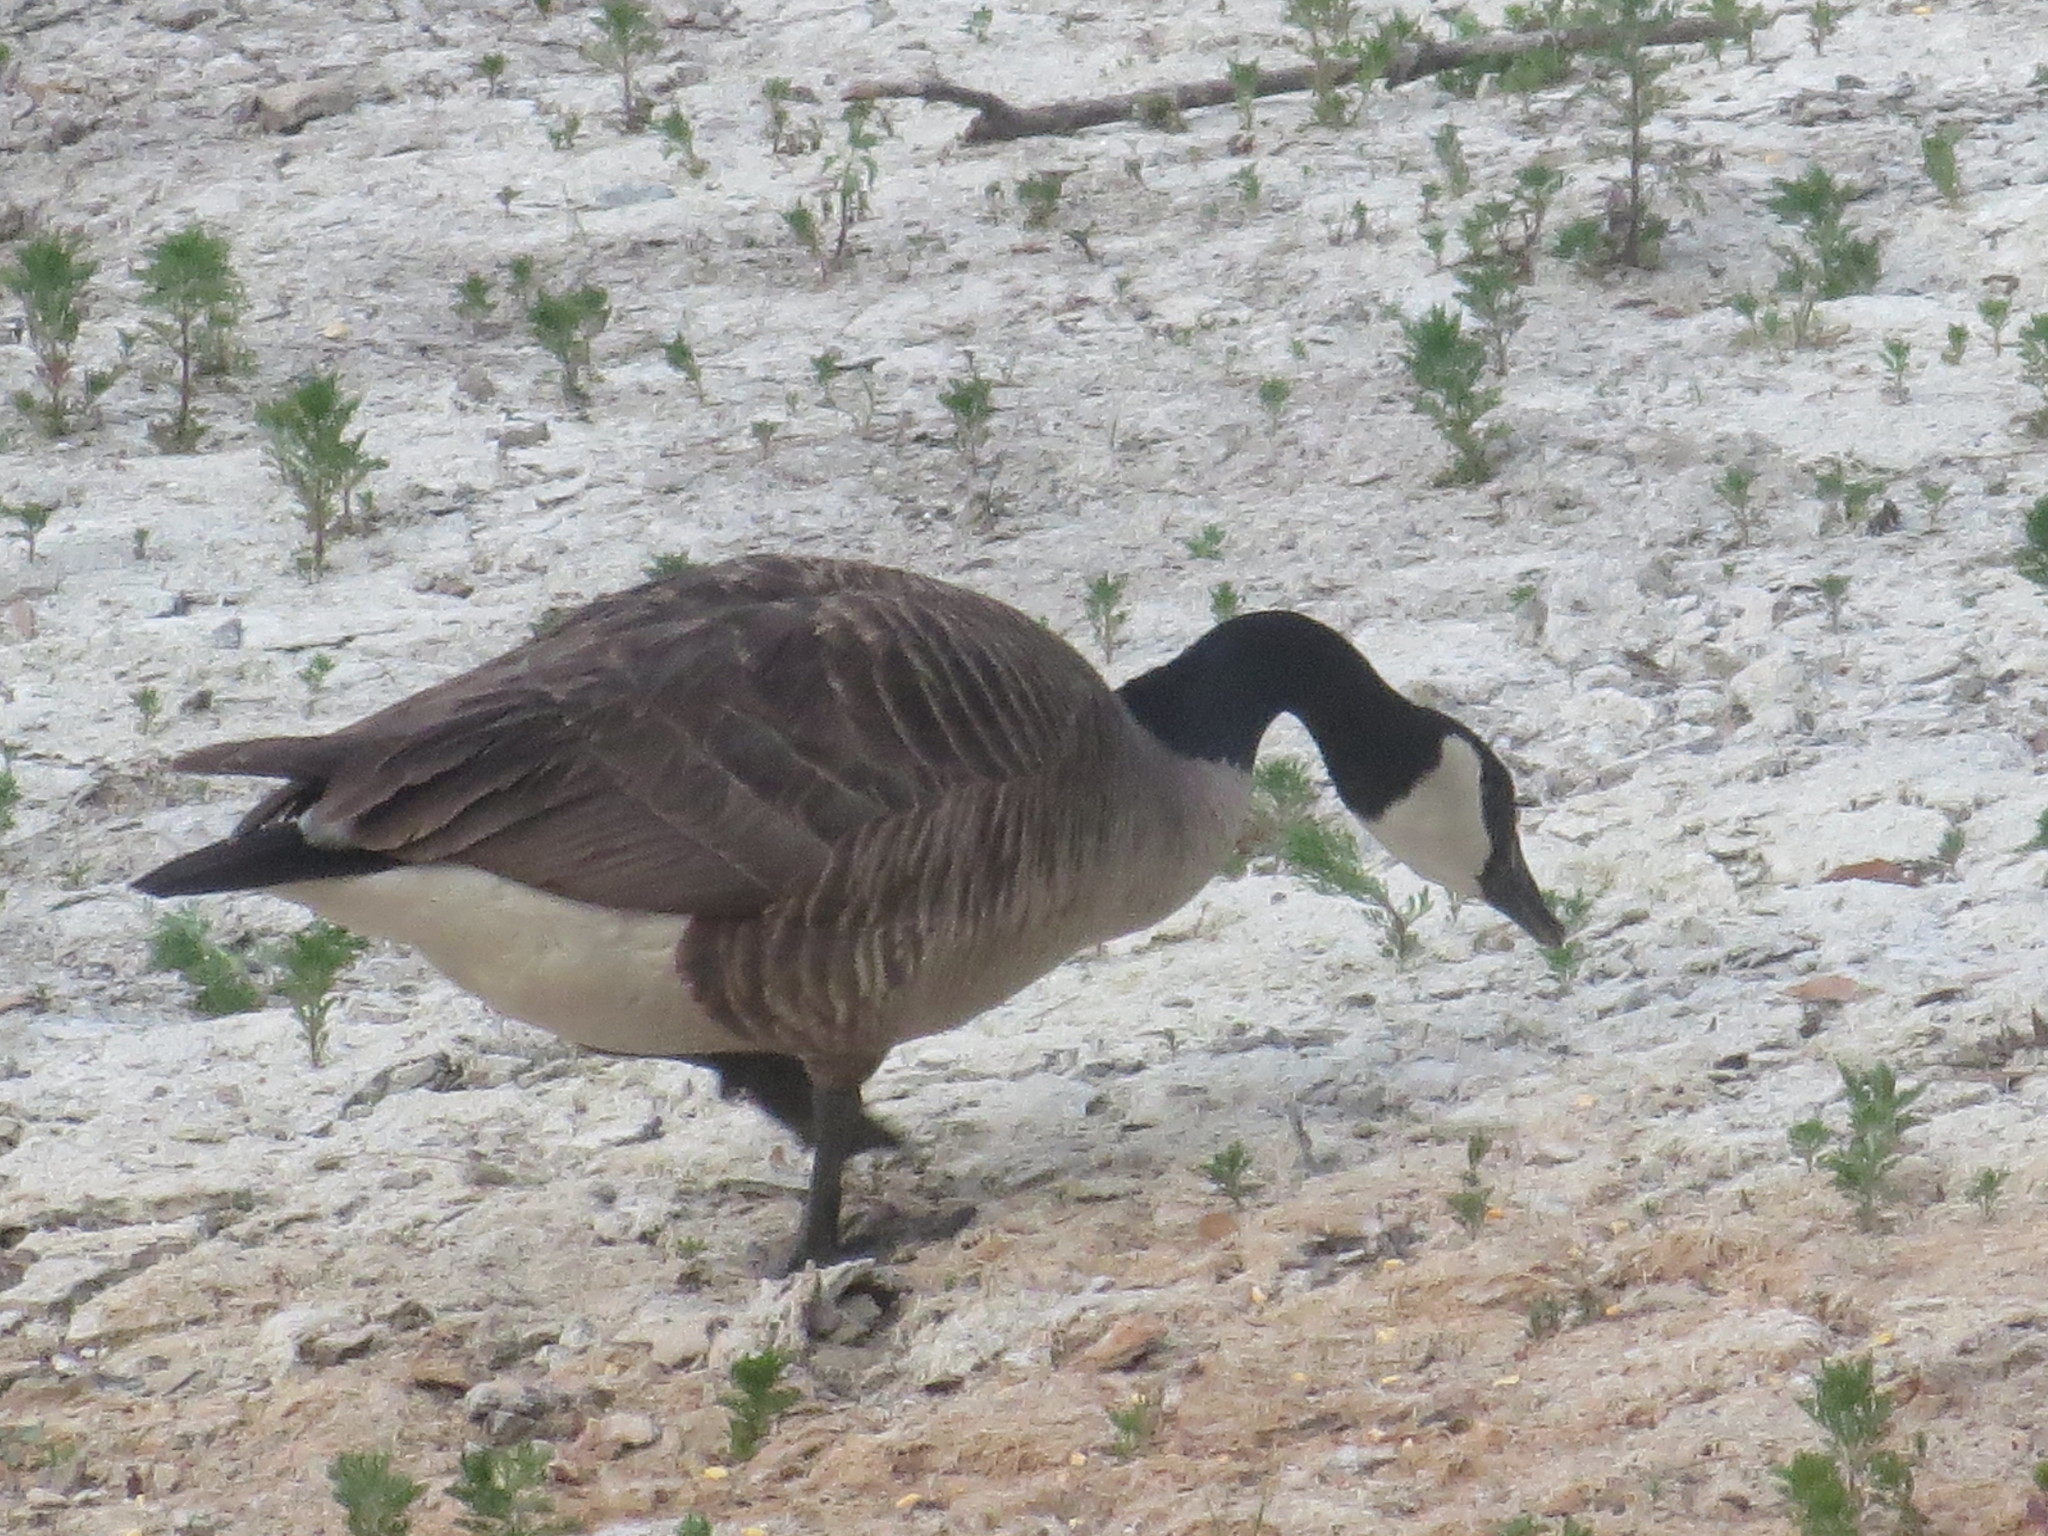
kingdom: Animalia
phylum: Chordata
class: Aves
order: Anseriformes
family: Anatidae
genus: Branta
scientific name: Branta canadensis
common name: Canada goose
